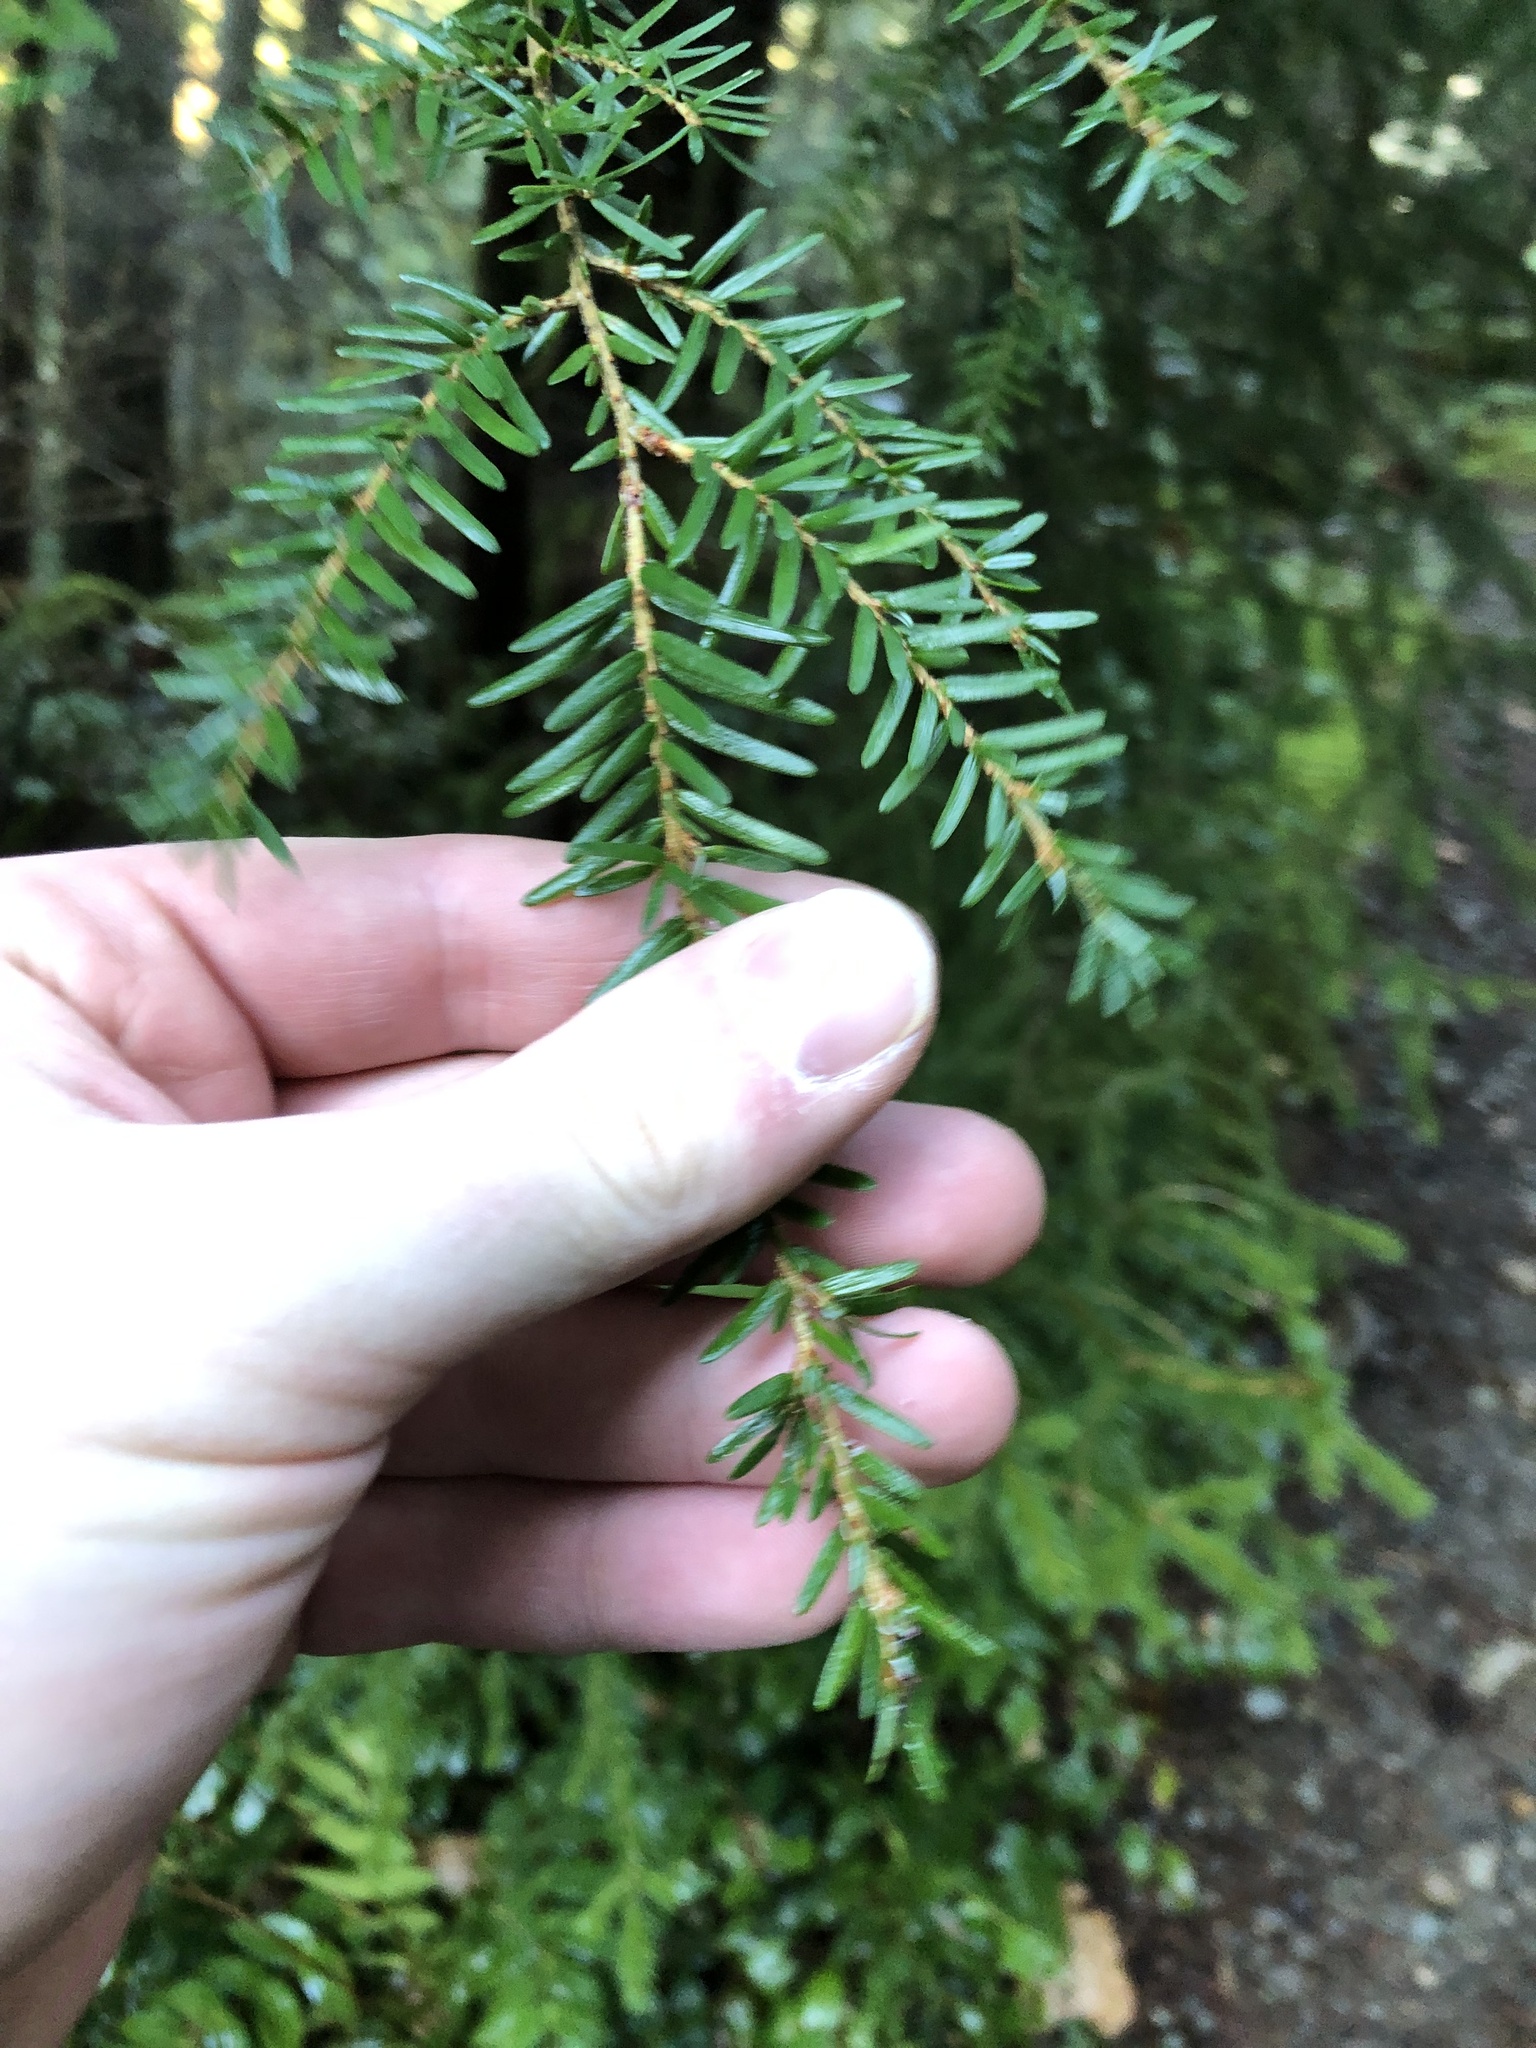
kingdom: Plantae
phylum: Tracheophyta
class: Pinopsida
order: Pinales
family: Pinaceae
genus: Tsuga
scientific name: Tsuga heterophylla
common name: Western hemlock
